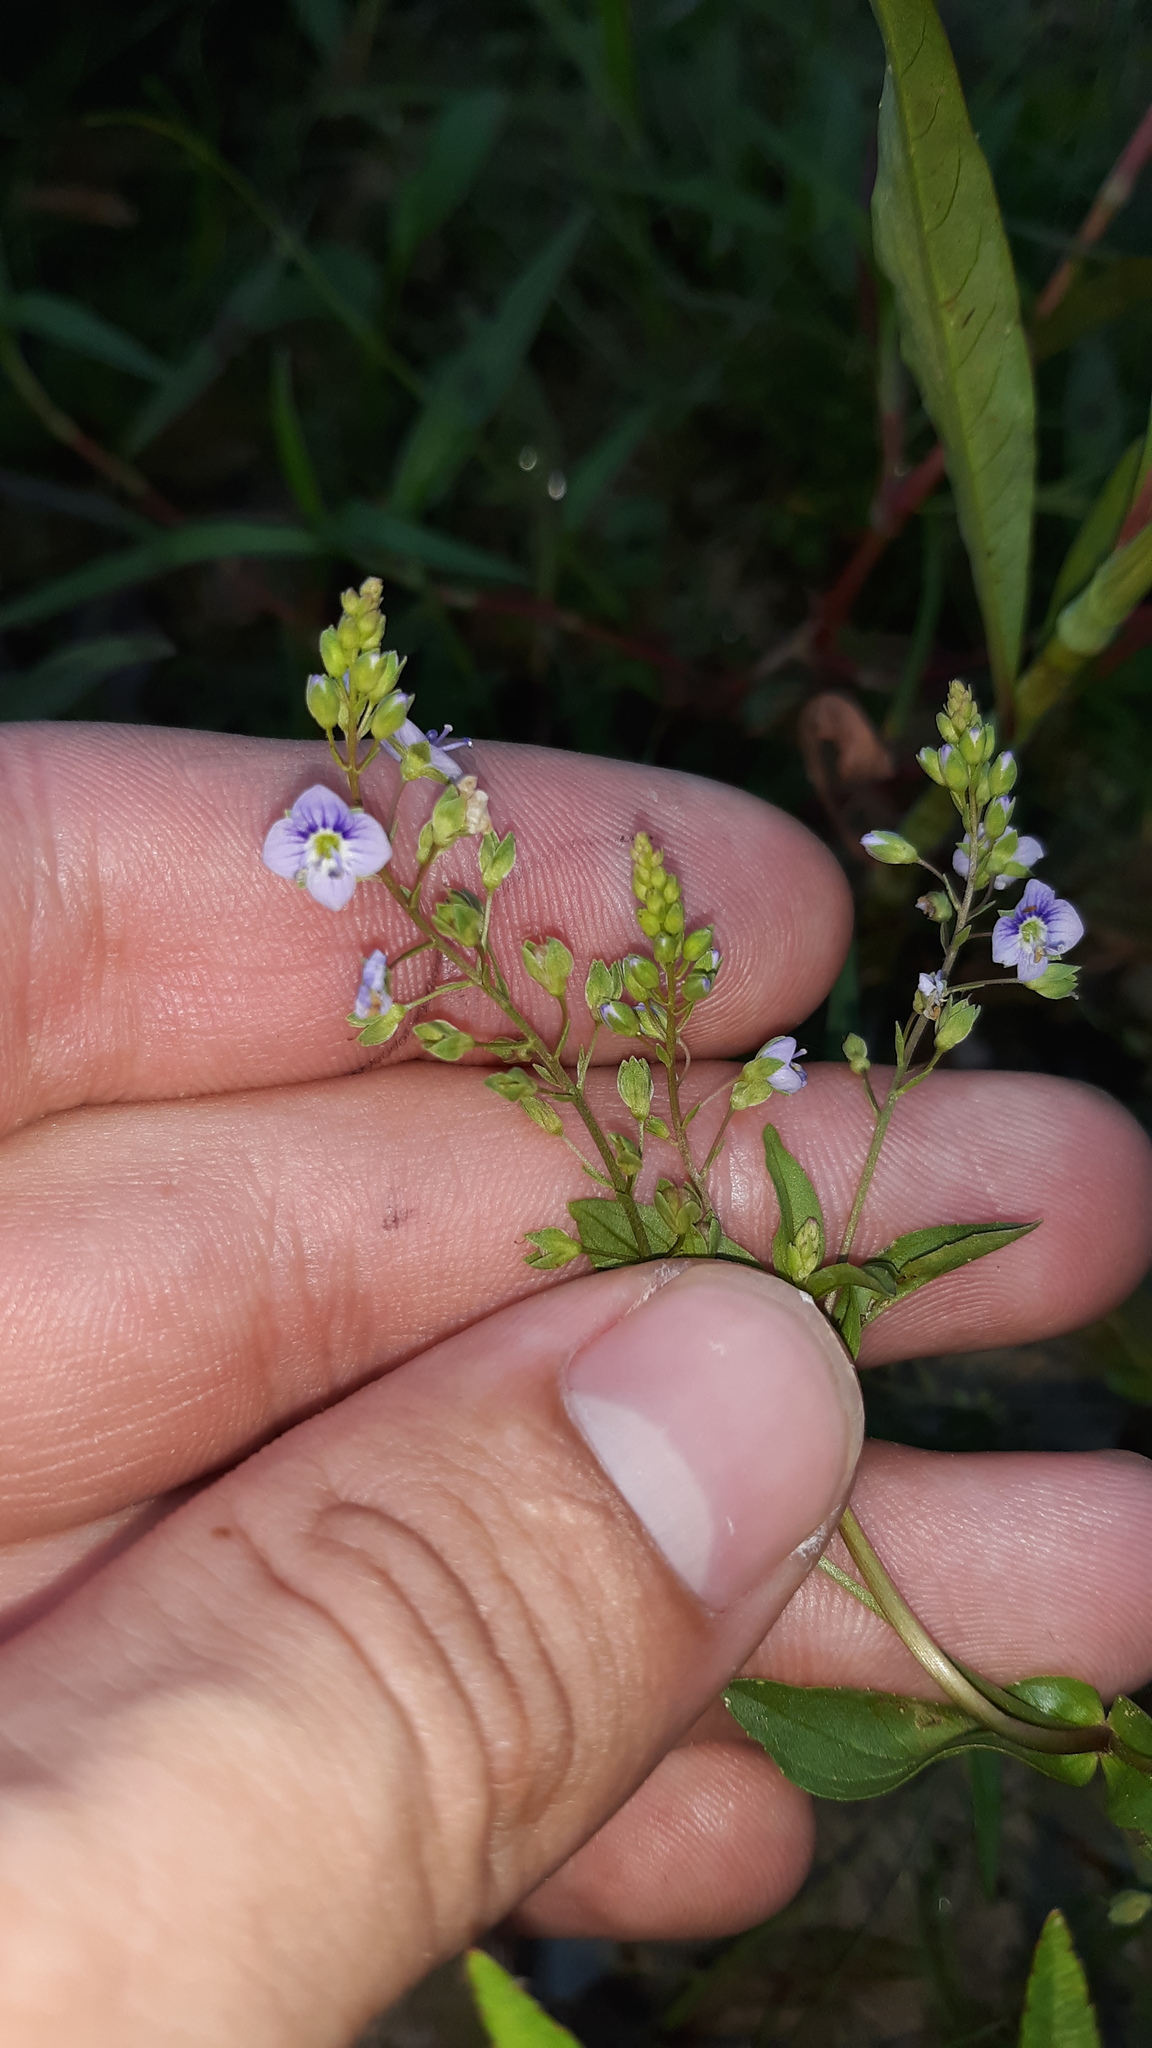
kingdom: Plantae
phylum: Tracheophyta
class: Magnoliopsida
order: Lamiales
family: Plantaginaceae
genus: Veronica
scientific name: Veronica anagallis-aquatica
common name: Water speedwell
